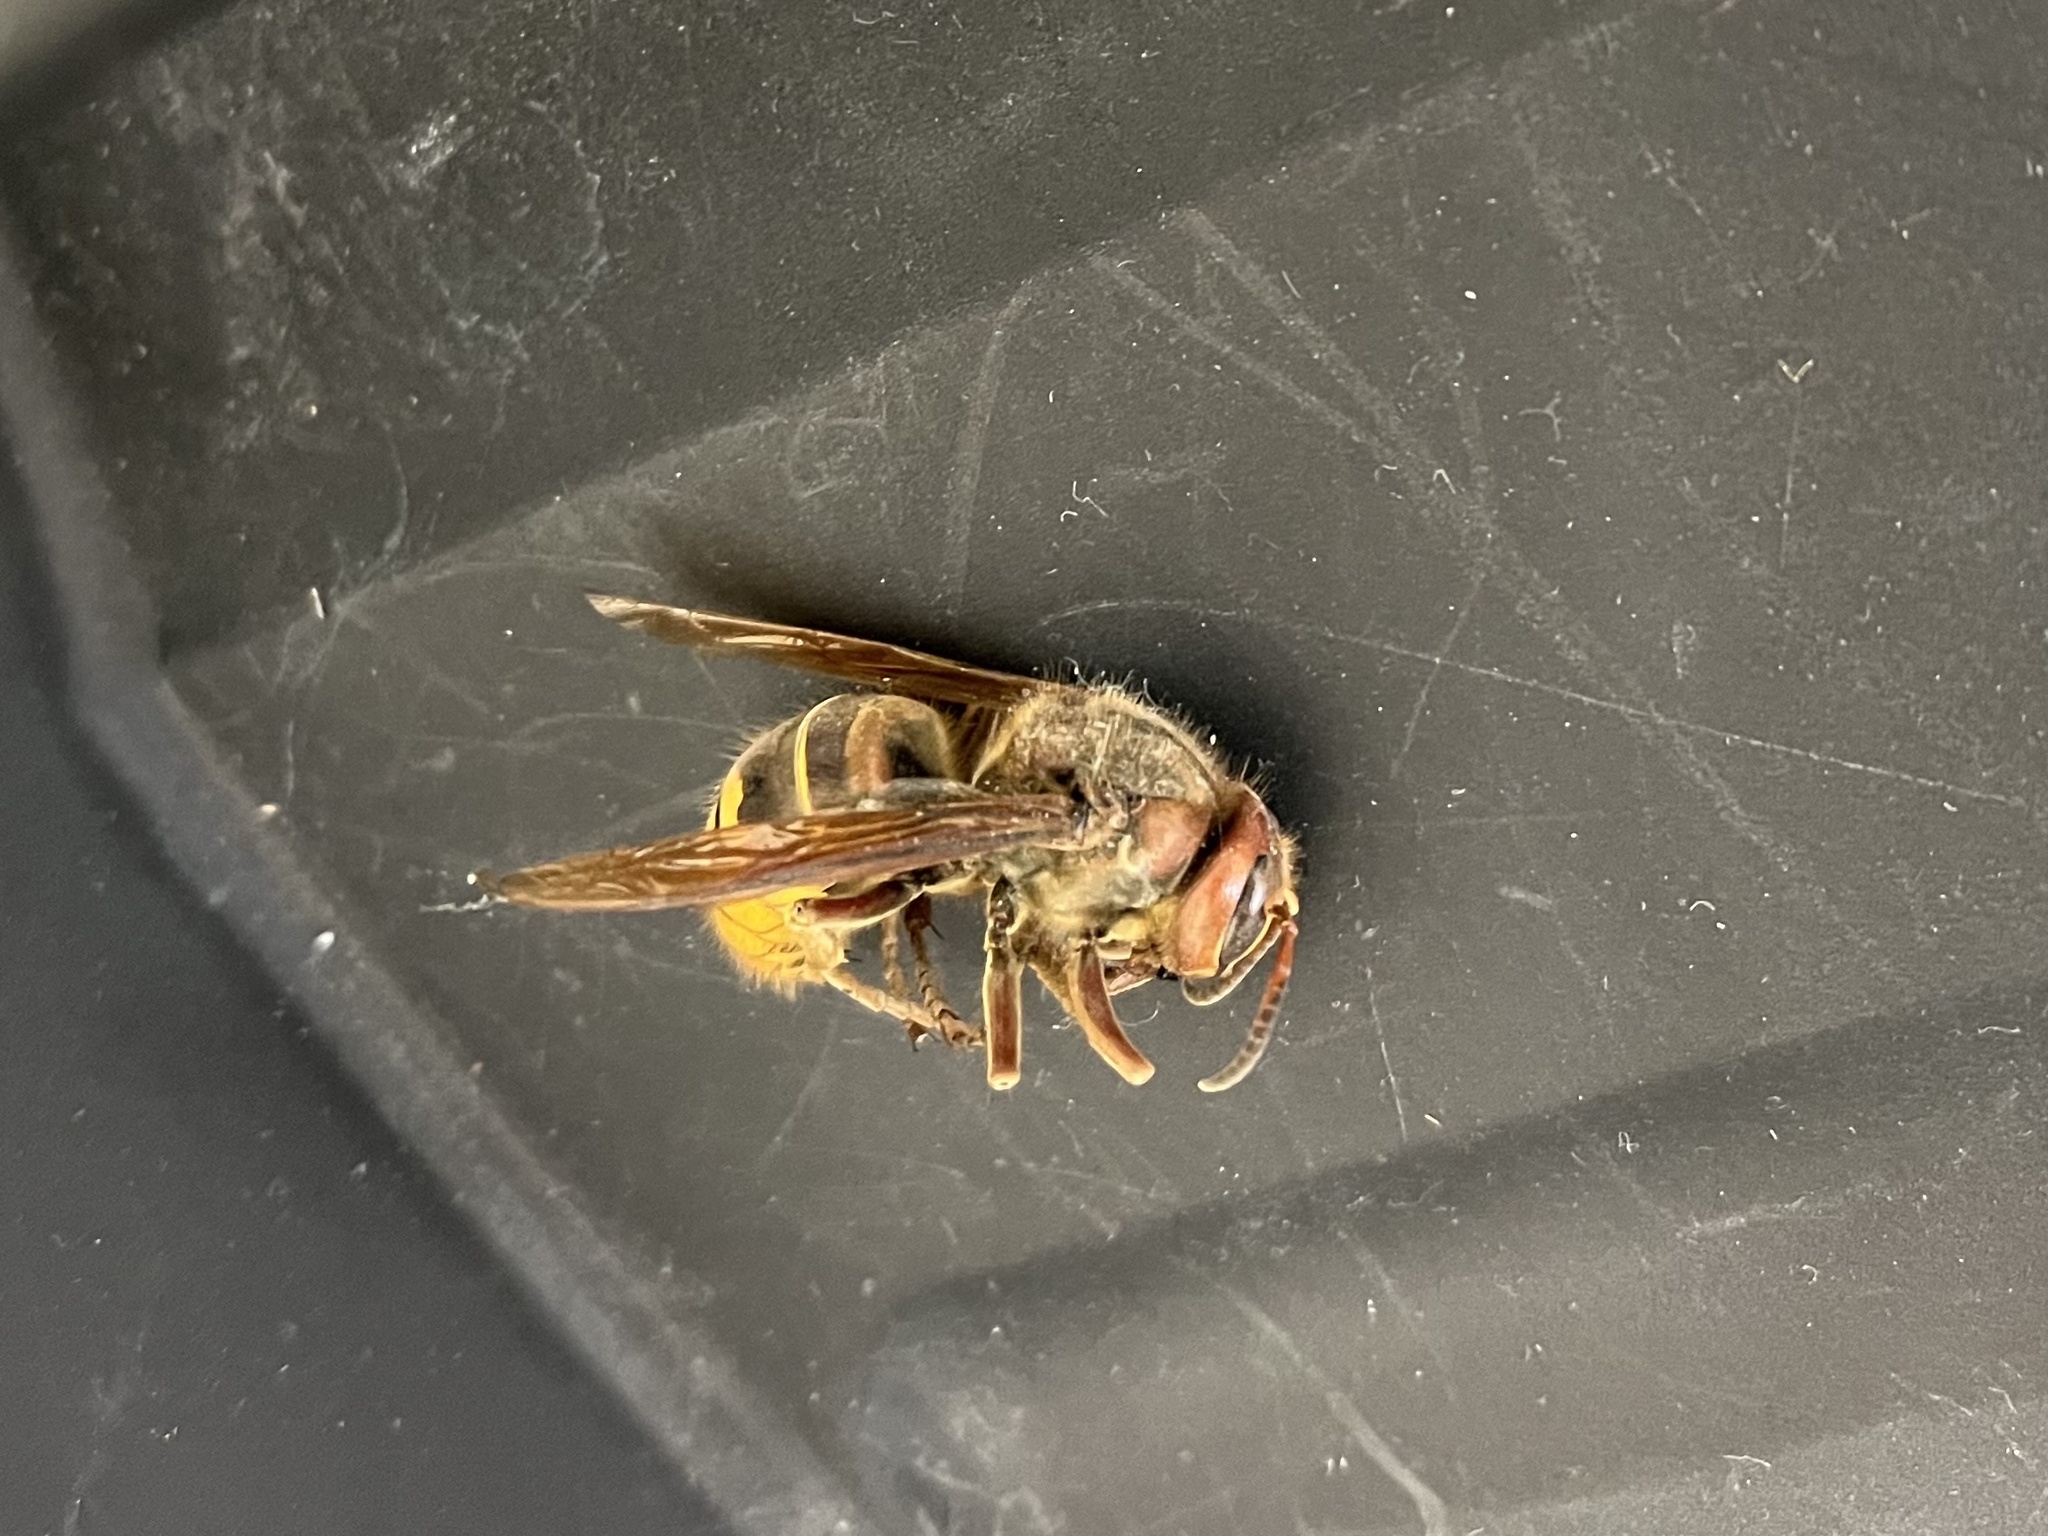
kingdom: Animalia
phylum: Arthropoda
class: Insecta
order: Hymenoptera
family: Vespidae
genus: Vespa
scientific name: Vespa crabro
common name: Hornet
